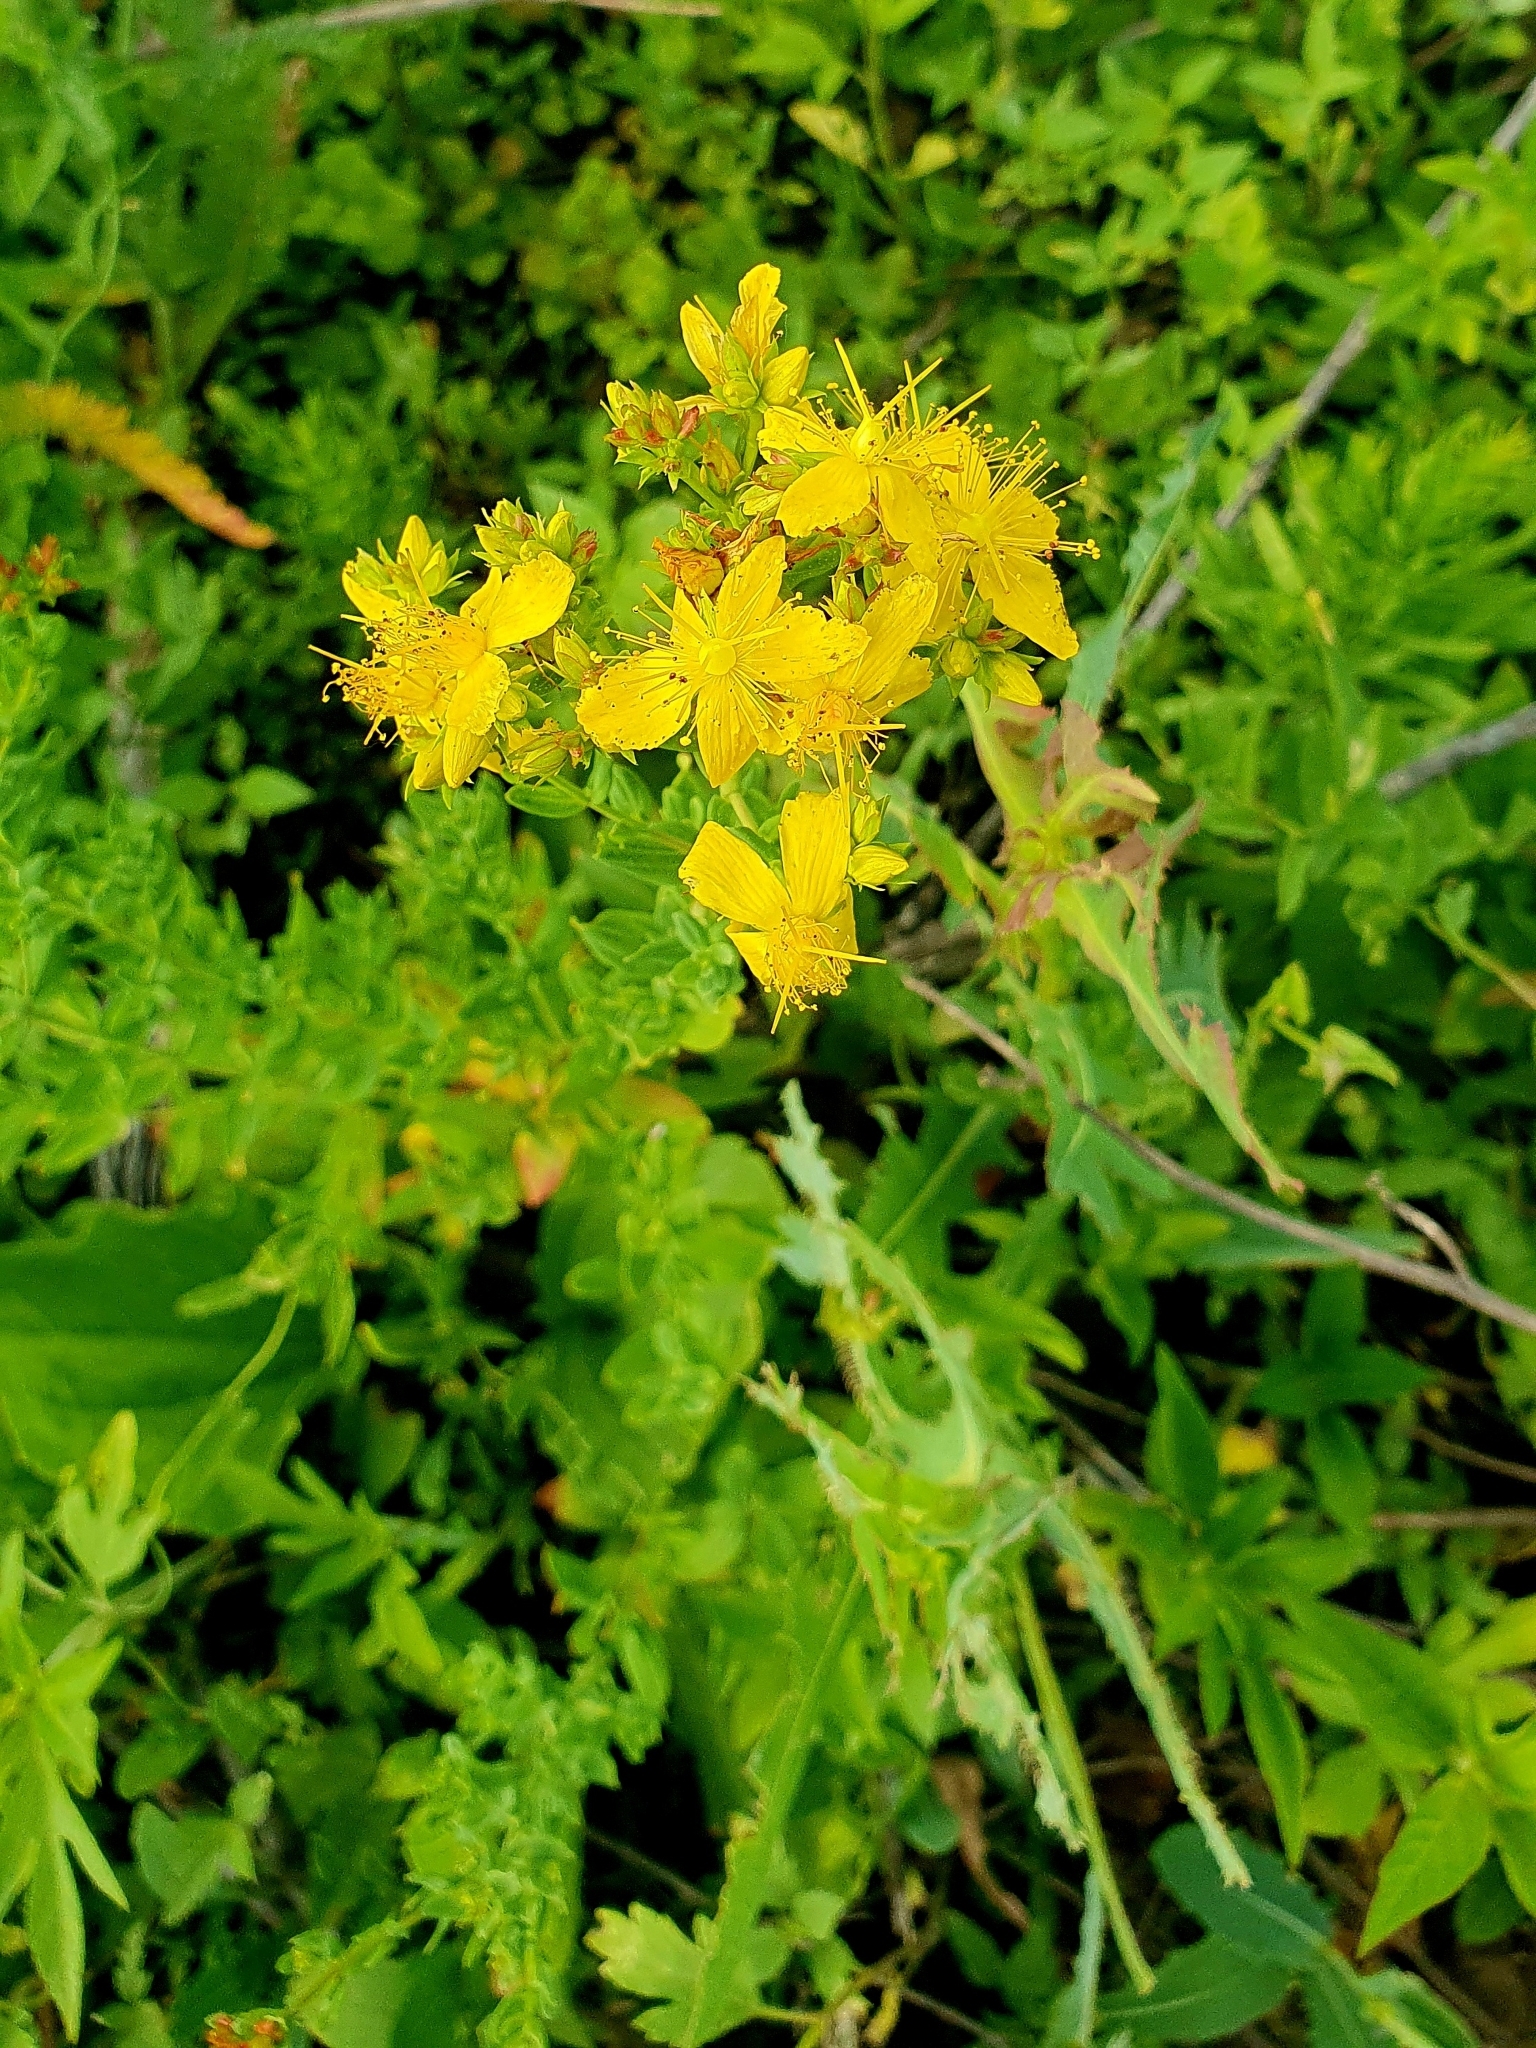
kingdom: Plantae
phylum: Tracheophyta
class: Magnoliopsida
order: Malpighiales
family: Hypericaceae
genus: Hypericum
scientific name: Hypericum perforatum
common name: Common st. johnswort
